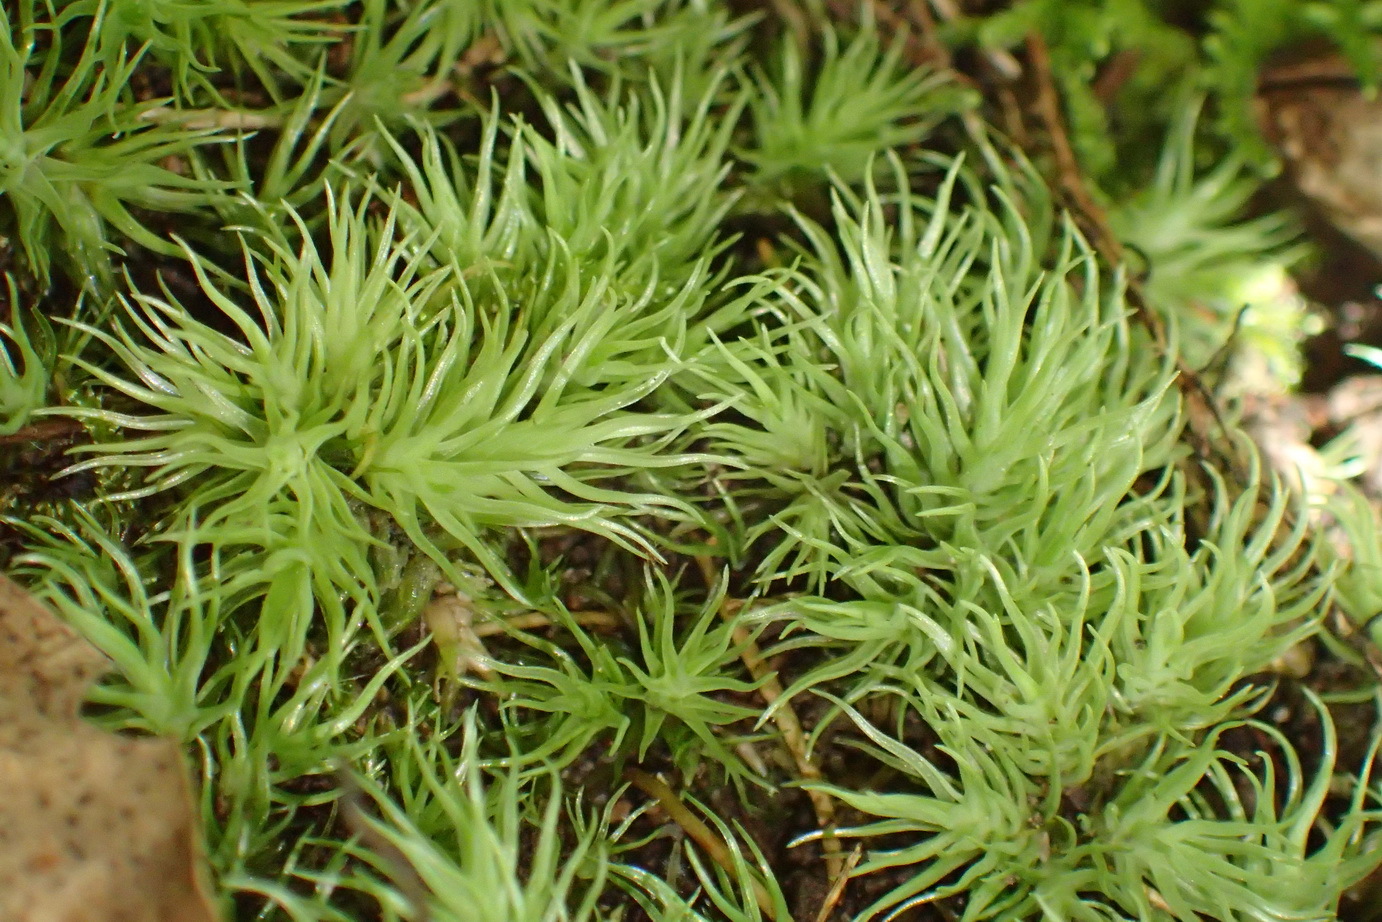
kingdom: Plantae
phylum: Bryophyta
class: Bryopsida
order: Dicranales
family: Leucobryaceae
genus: Leucobryum
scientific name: Leucobryum rehmannii
